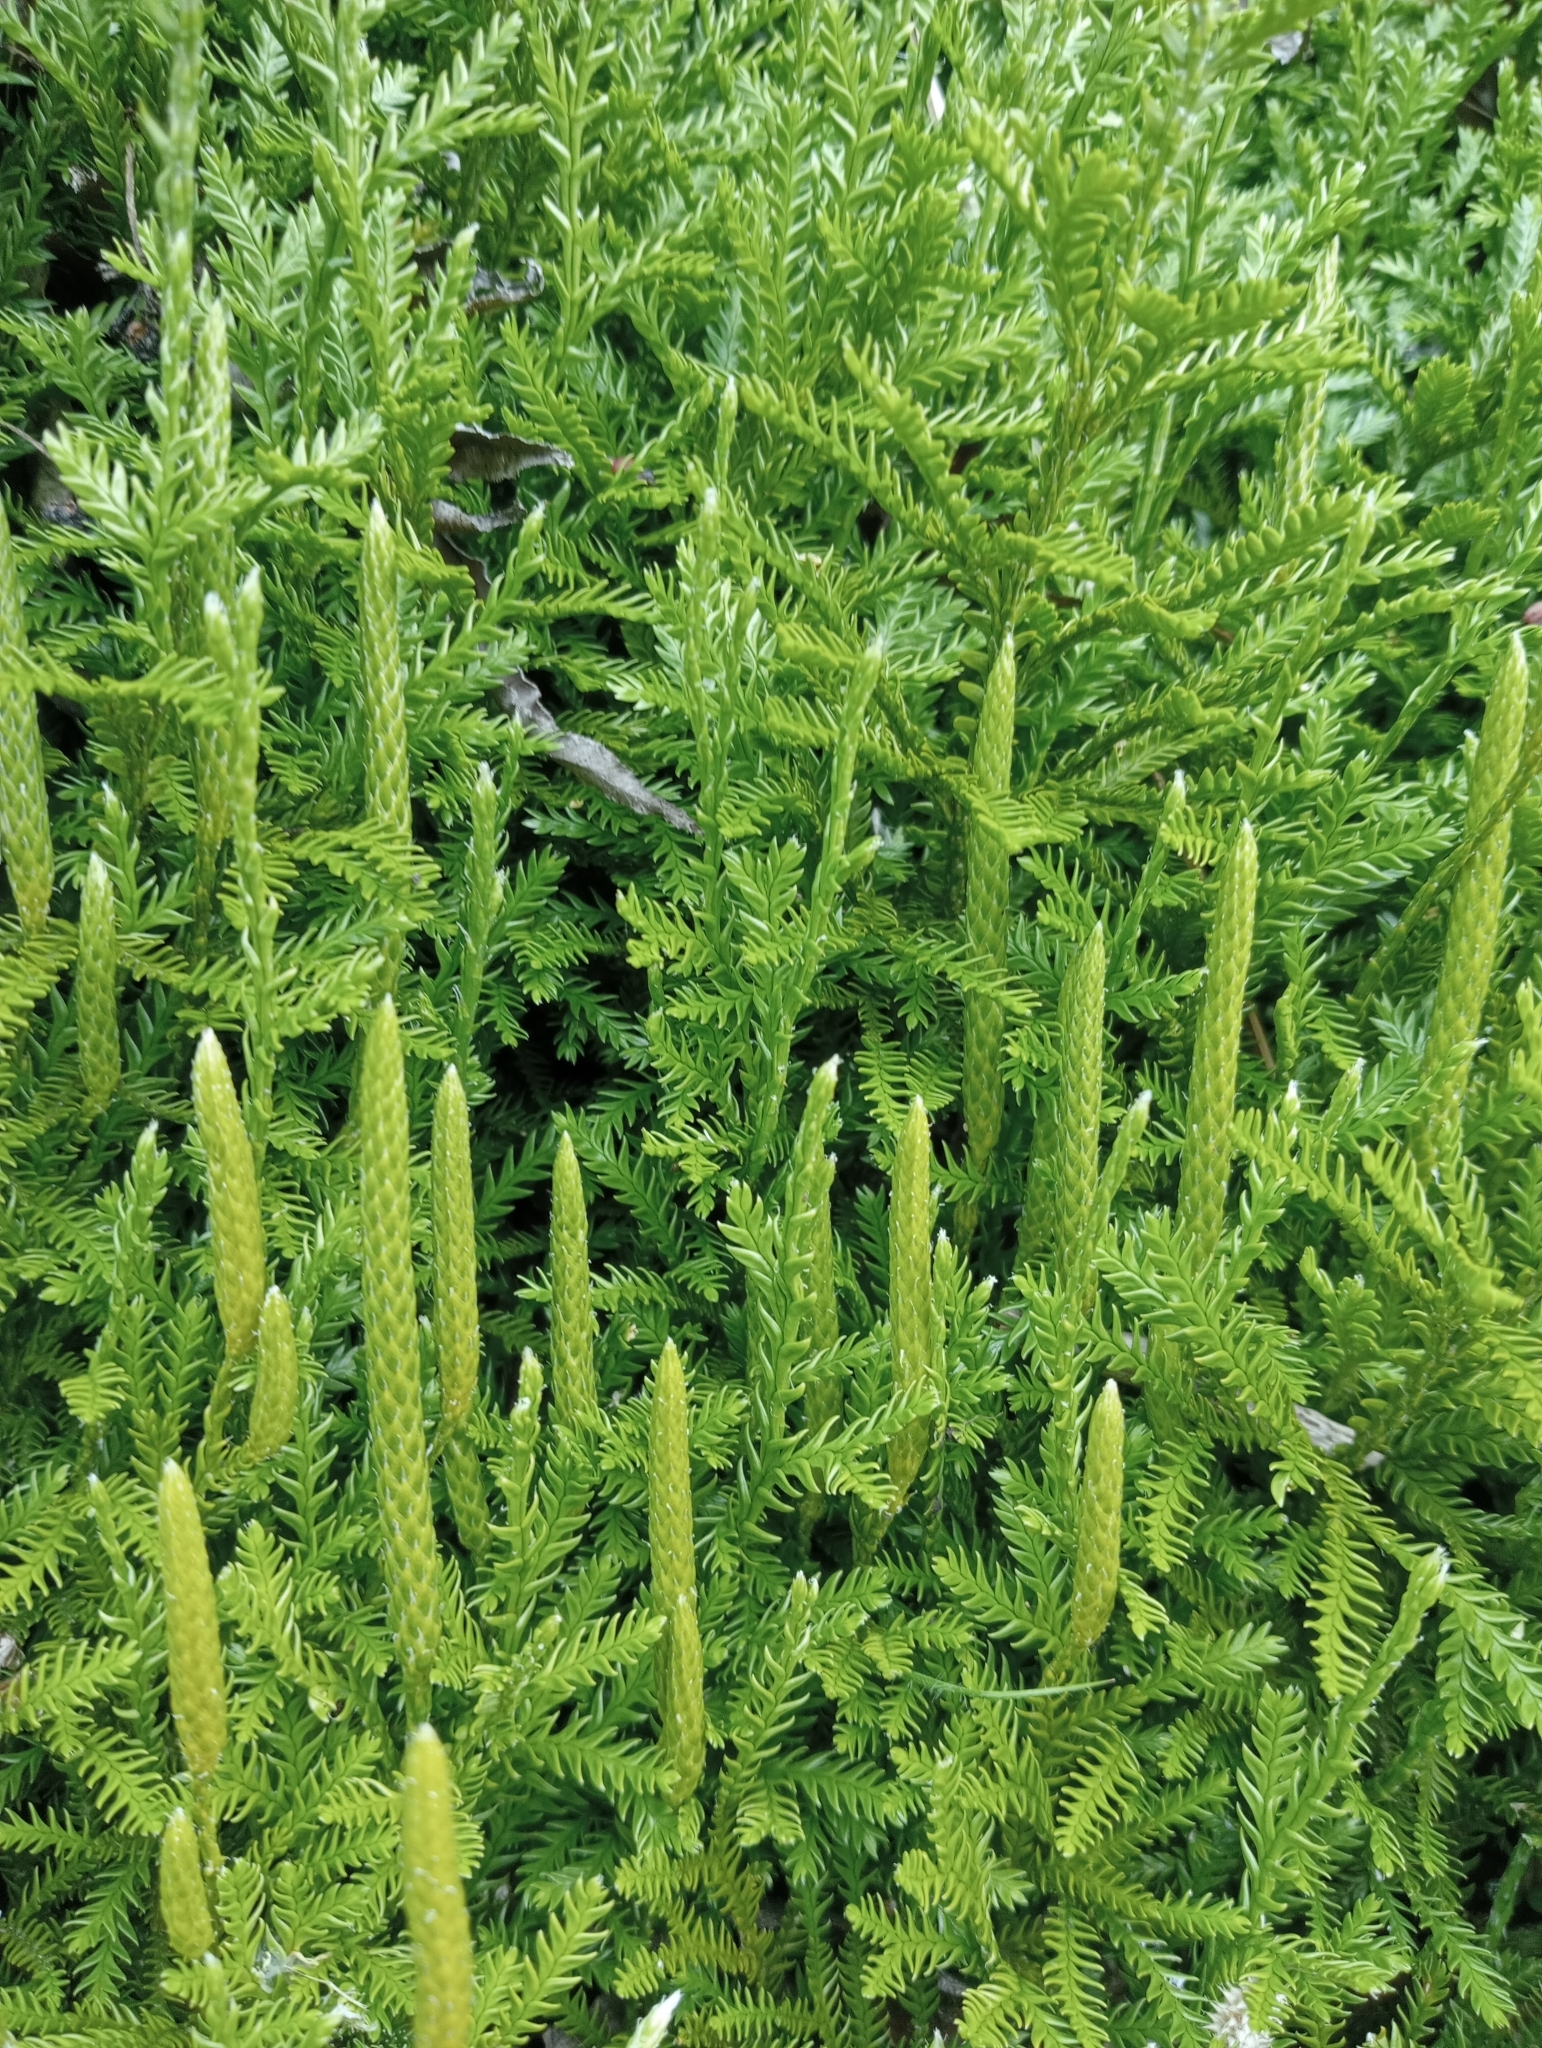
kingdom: Plantae
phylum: Tracheophyta
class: Lycopodiopsida
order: Lycopodiales
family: Lycopodiaceae
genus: Diphasium
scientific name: Diphasium scariosum
